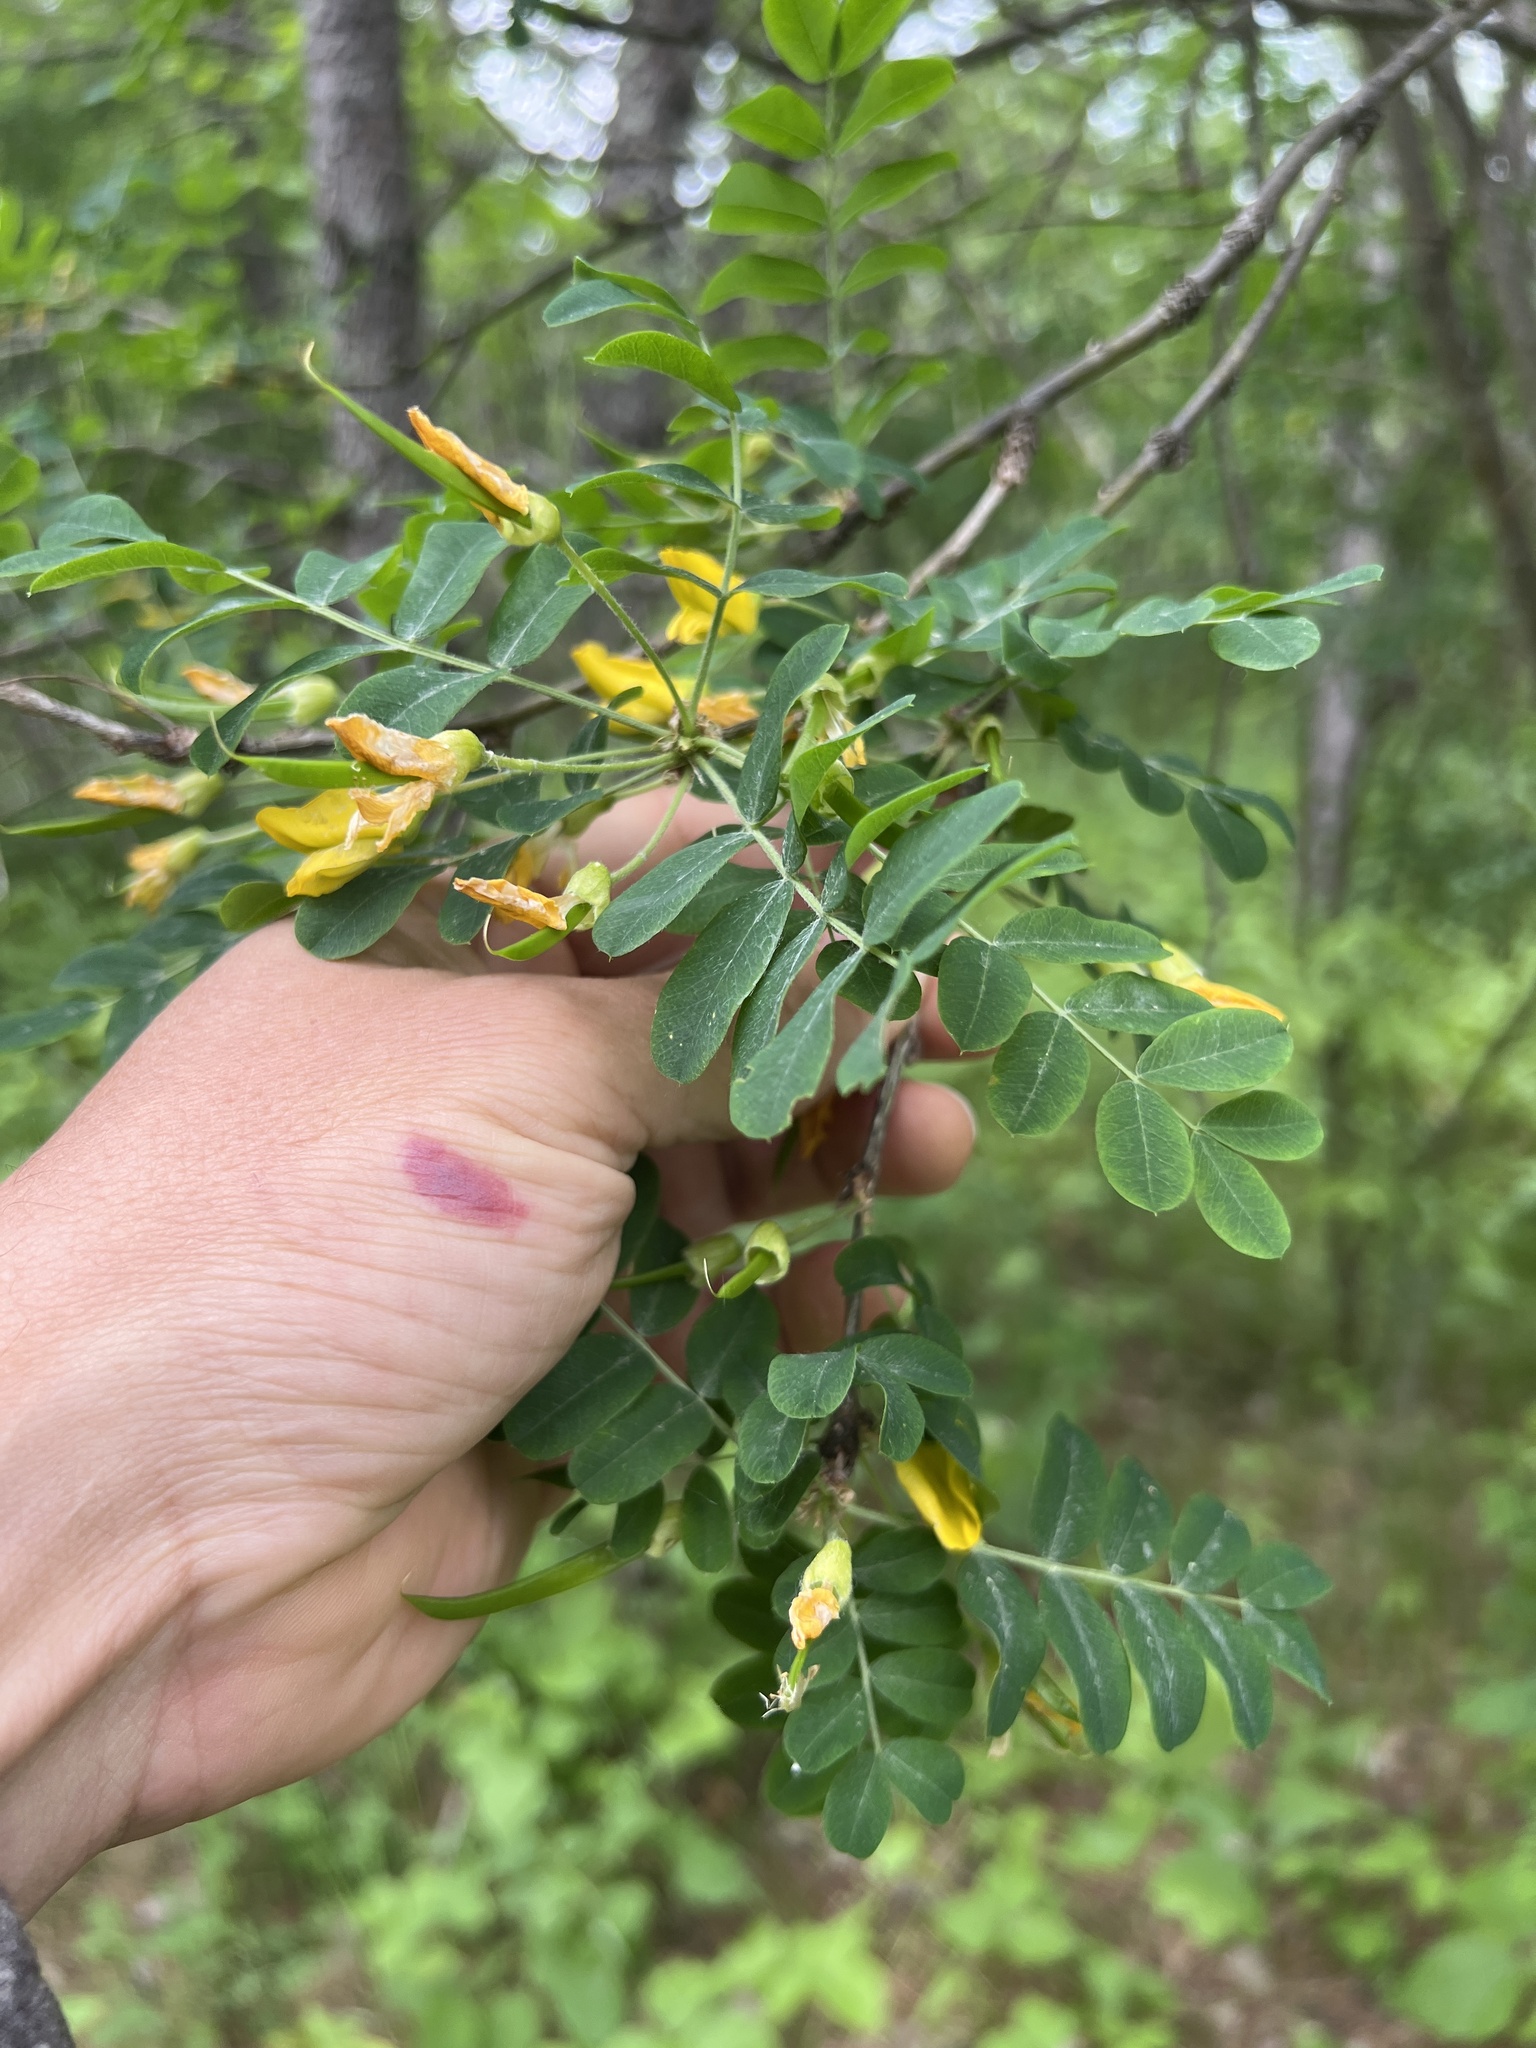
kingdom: Plantae
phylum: Tracheophyta
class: Magnoliopsida
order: Fabales
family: Fabaceae
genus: Caragana
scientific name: Caragana arborescens
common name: Siberian peashrub
